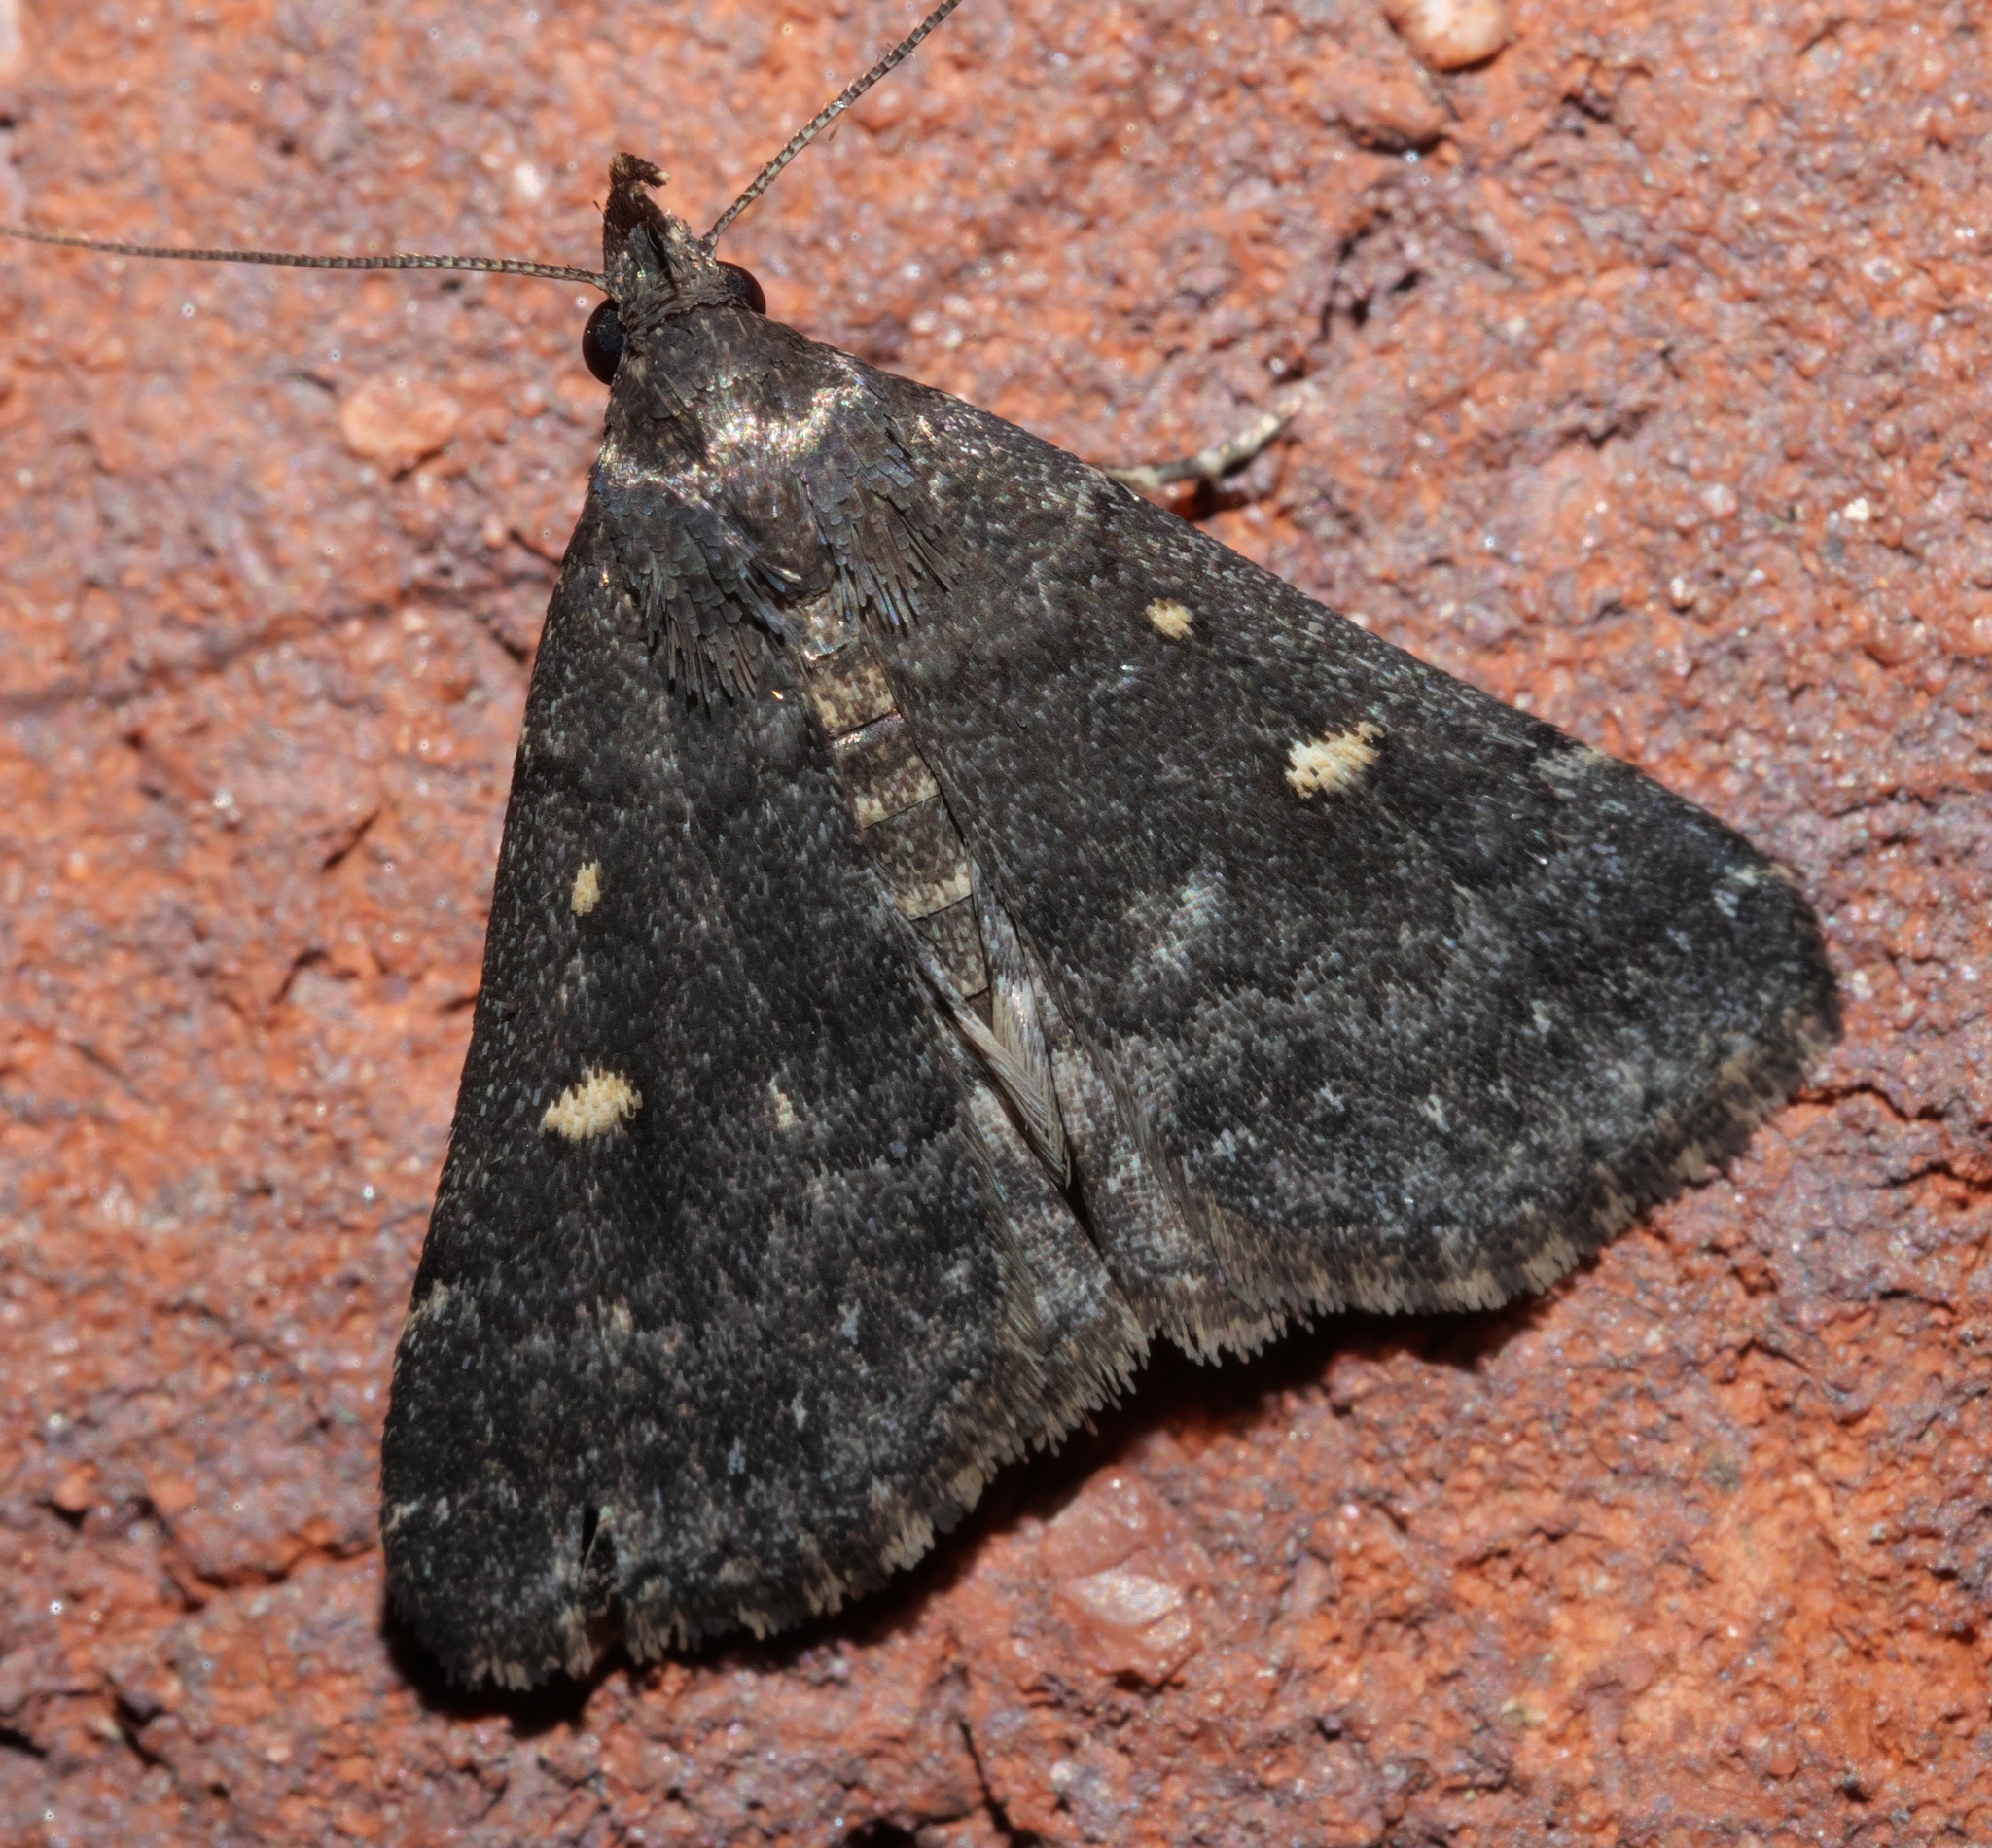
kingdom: Animalia
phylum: Arthropoda
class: Insecta
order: Lepidoptera
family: Erebidae
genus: Tetanolita
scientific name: Tetanolita mynesalis
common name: Smoky tetanolita moth
